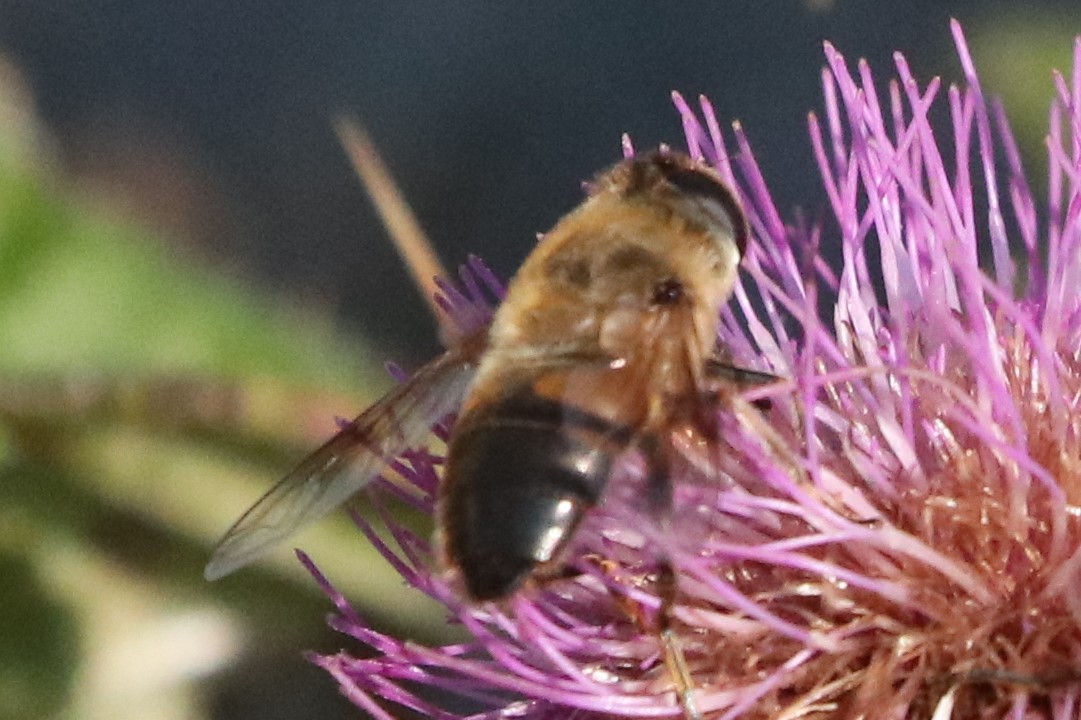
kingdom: Animalia
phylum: Arthropoda
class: Insecta
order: Diptera
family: Syrphidae
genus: Eristalis
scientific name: Eristalis tenax
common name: Drone fly
